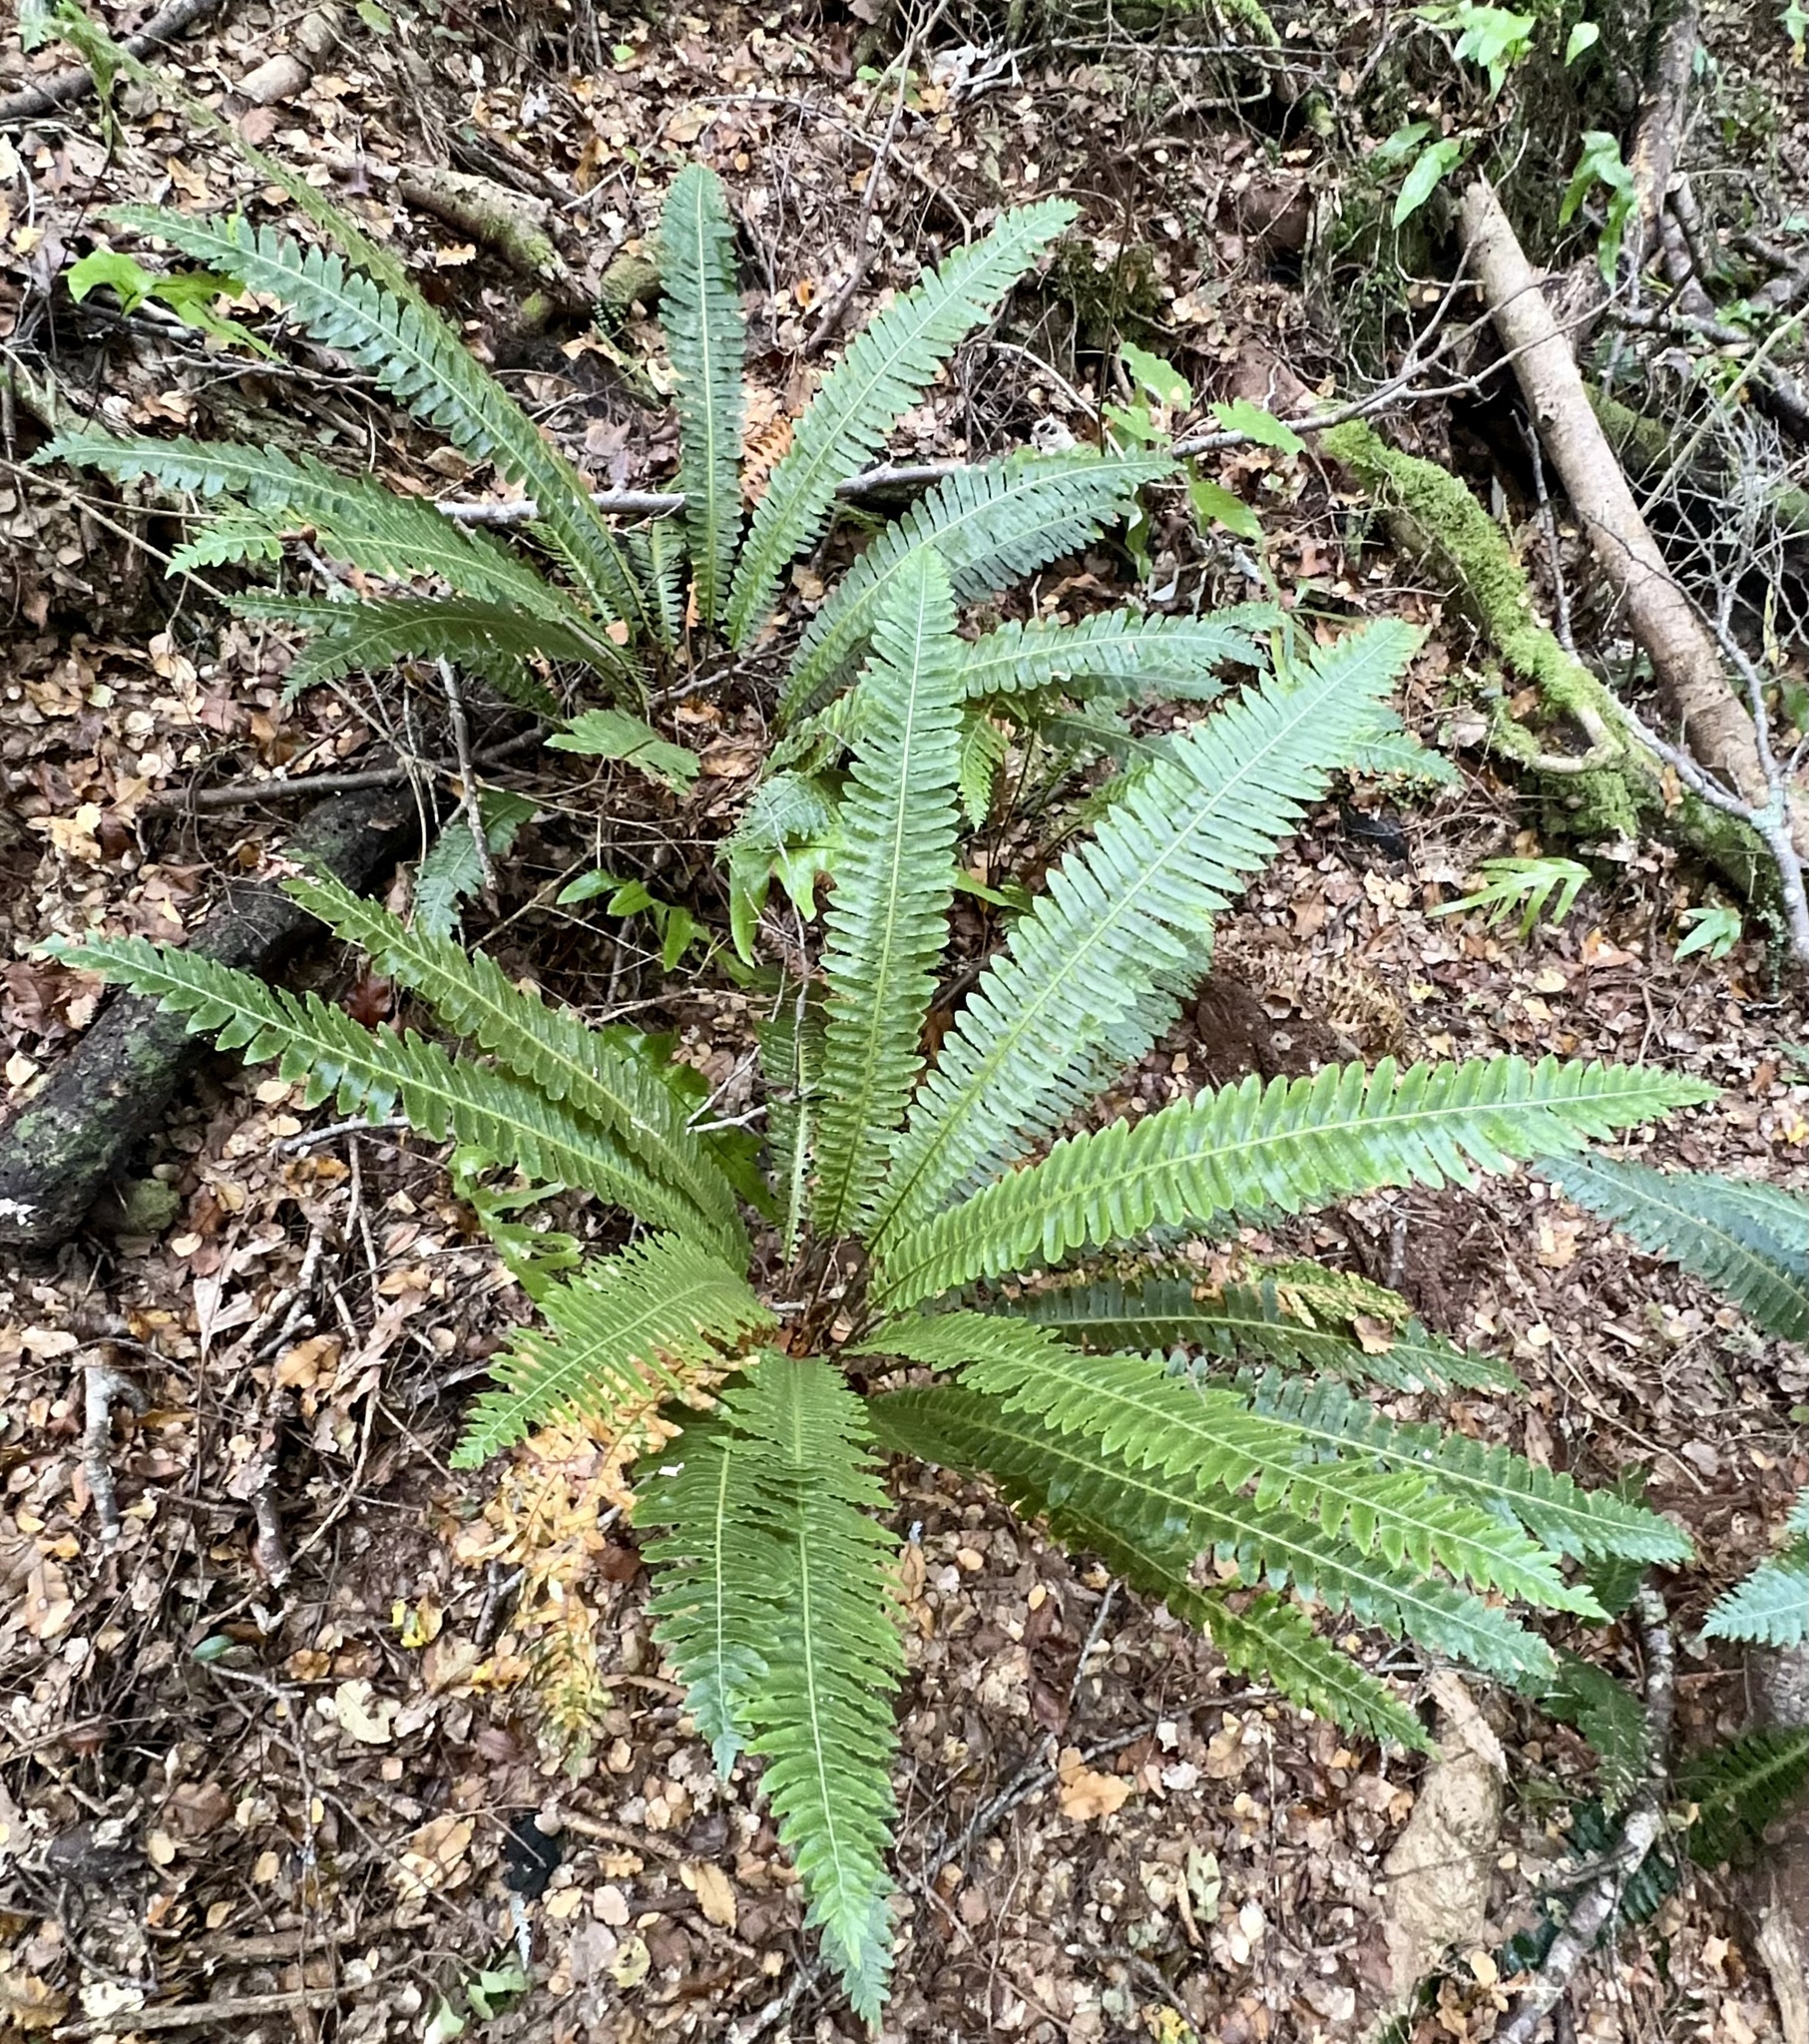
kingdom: Plantae
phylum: Tracheophyta
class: Polypodiopsida
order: Polypodiales
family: Blechnaceae
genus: Lomaria
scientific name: Lomaria discolor
